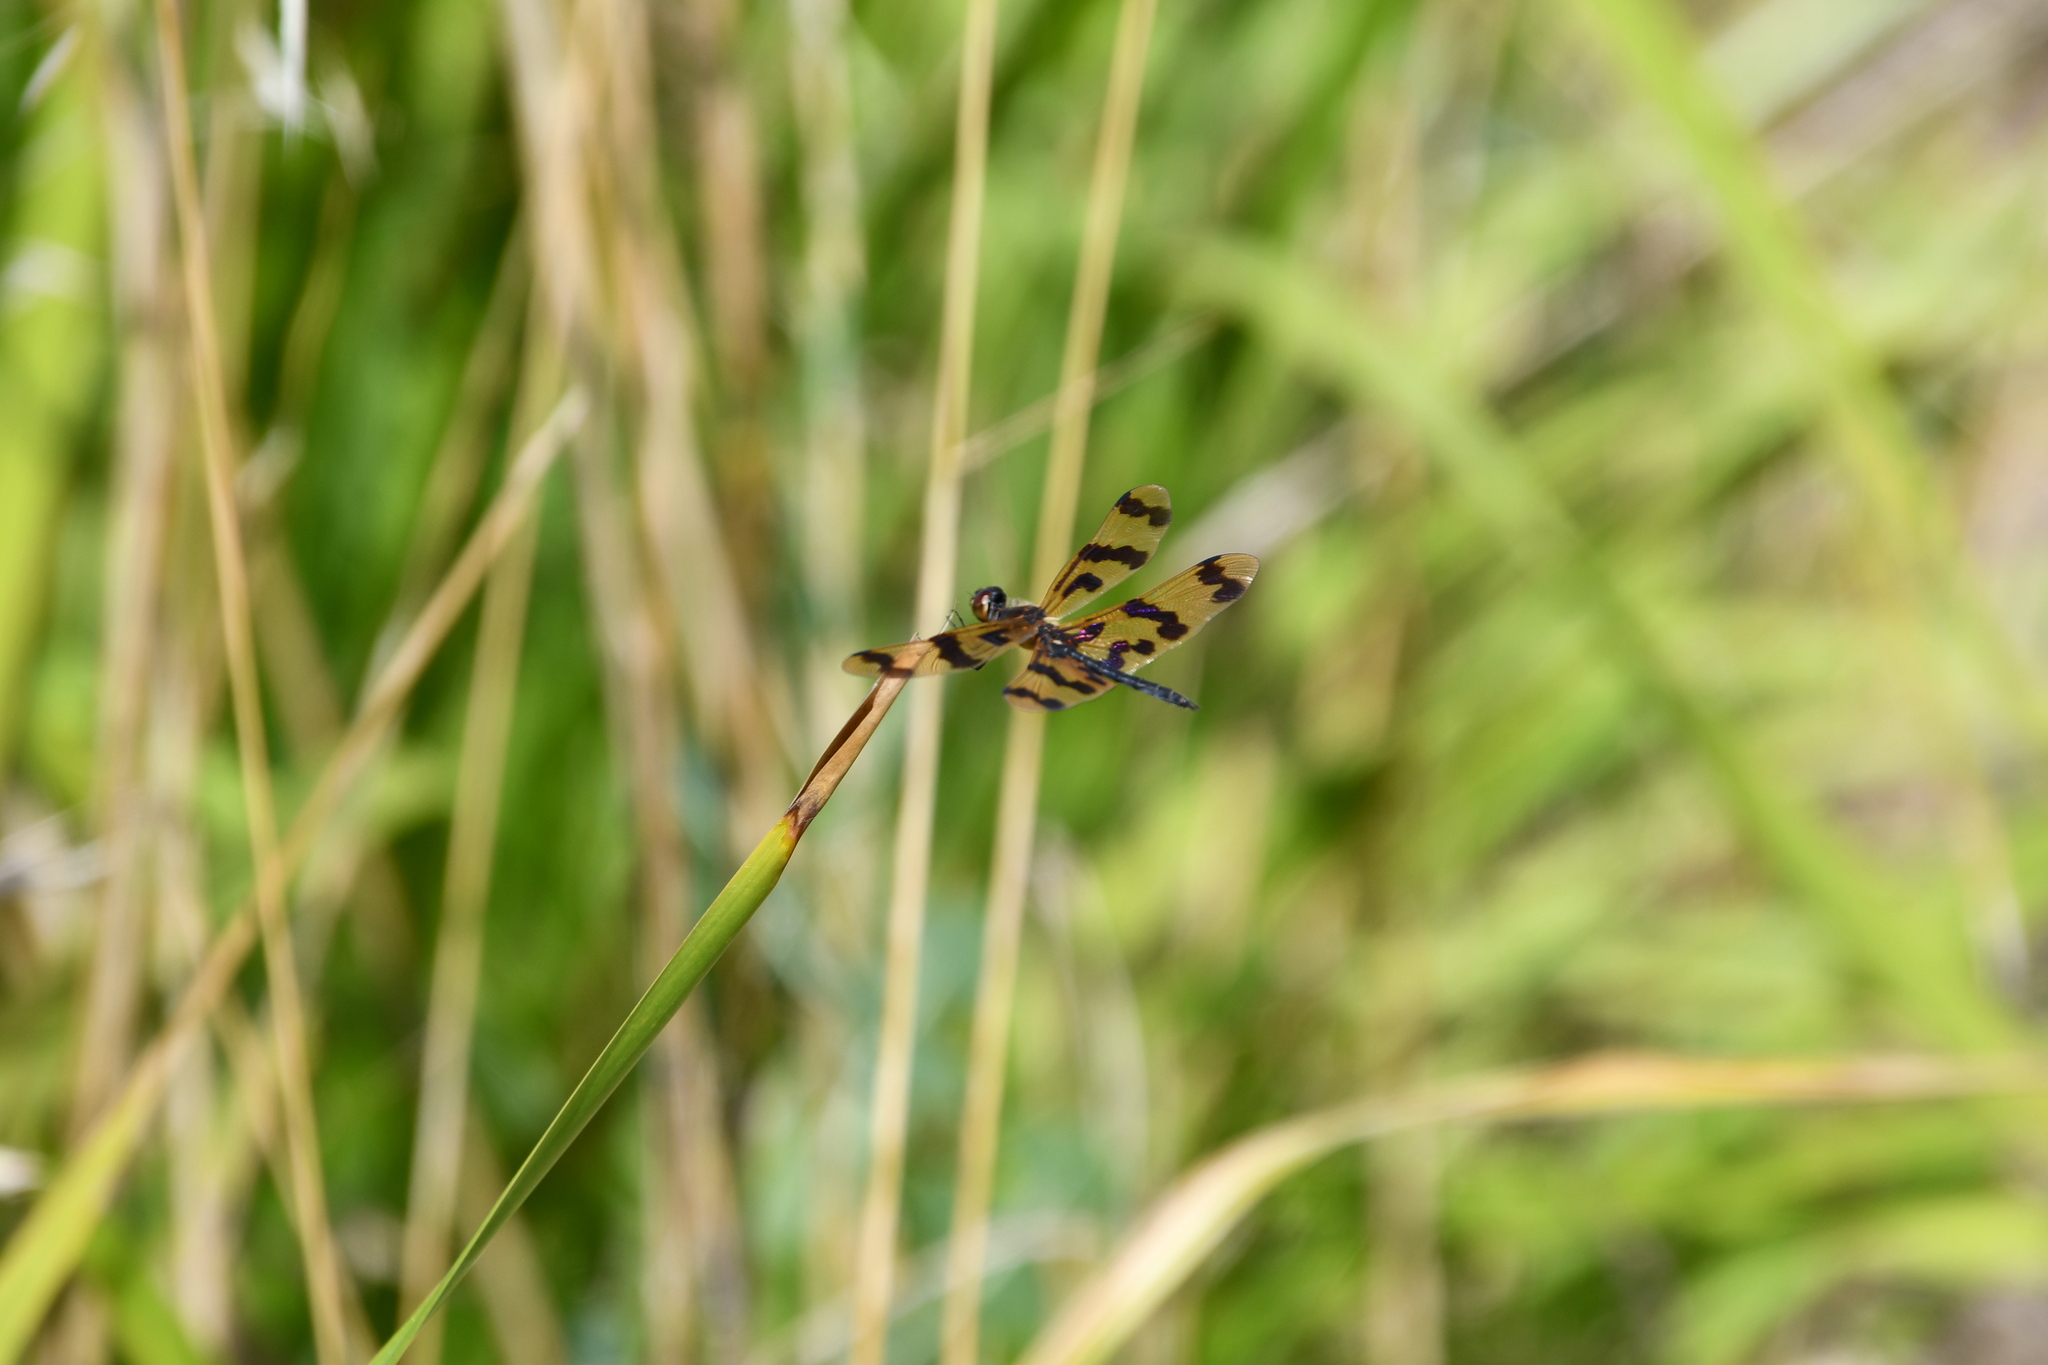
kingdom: Animalia
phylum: Arthropoda
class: Insecta
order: Odonata
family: Libellulidae
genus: Rhyothemis
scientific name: Rhyothemis graphiptera
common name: Graphic flutterer
